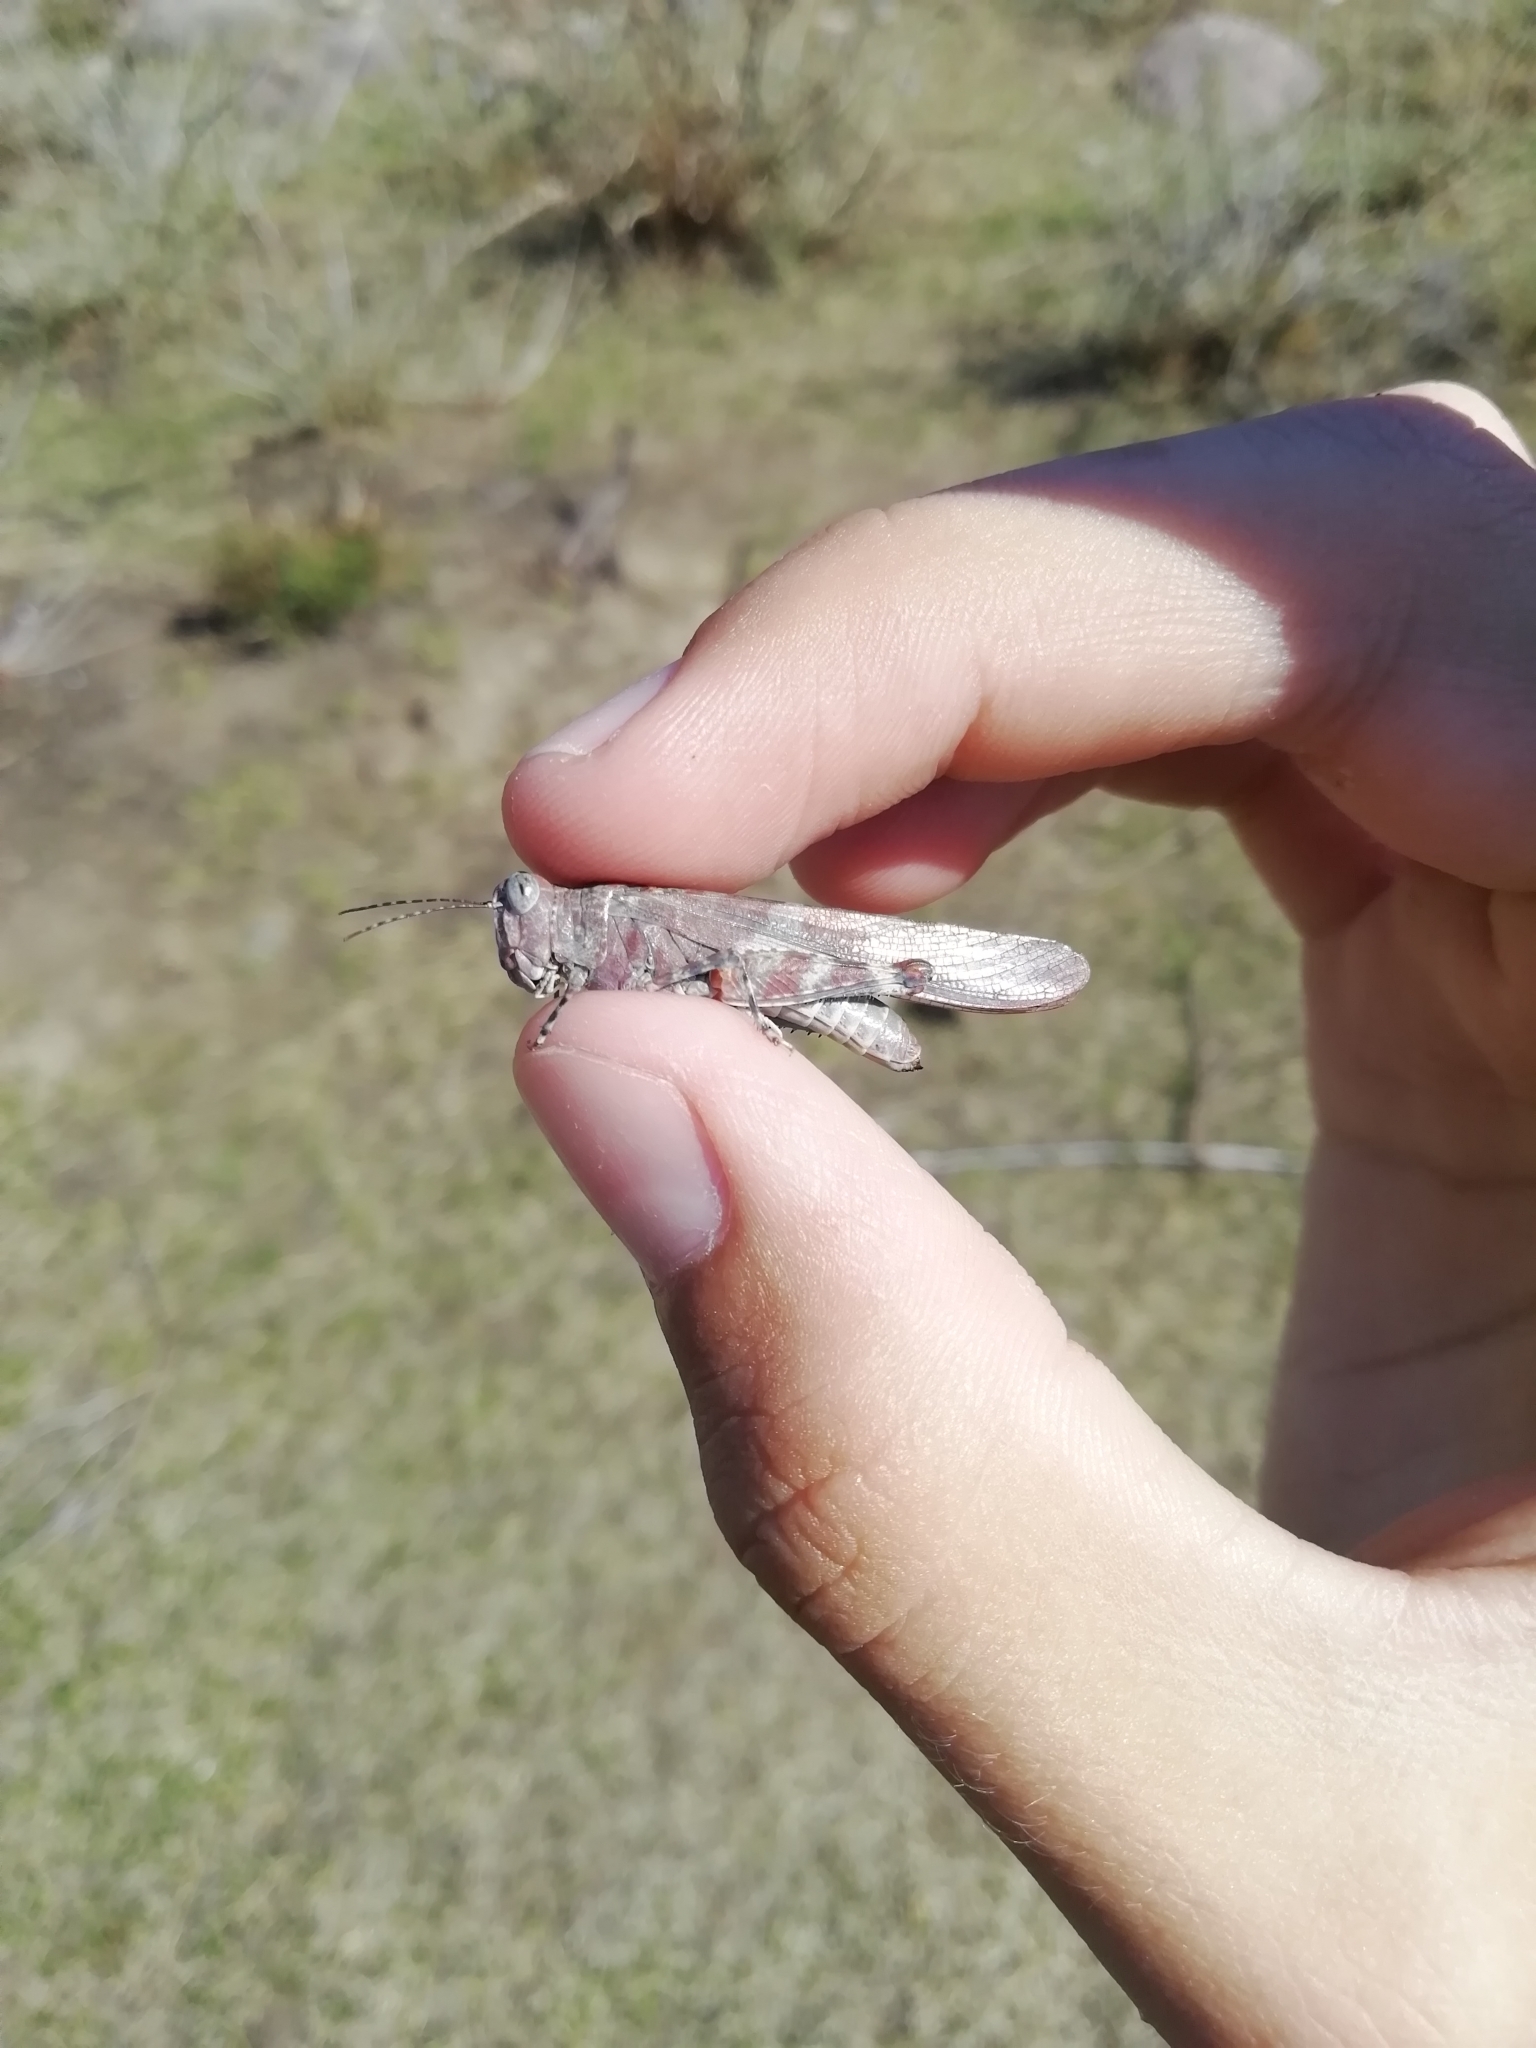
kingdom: Animalia
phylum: Arthropoda
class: Insecta
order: Orthoptera
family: Acrididae
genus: Sphingonotus
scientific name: Sphingonotus rubescens
